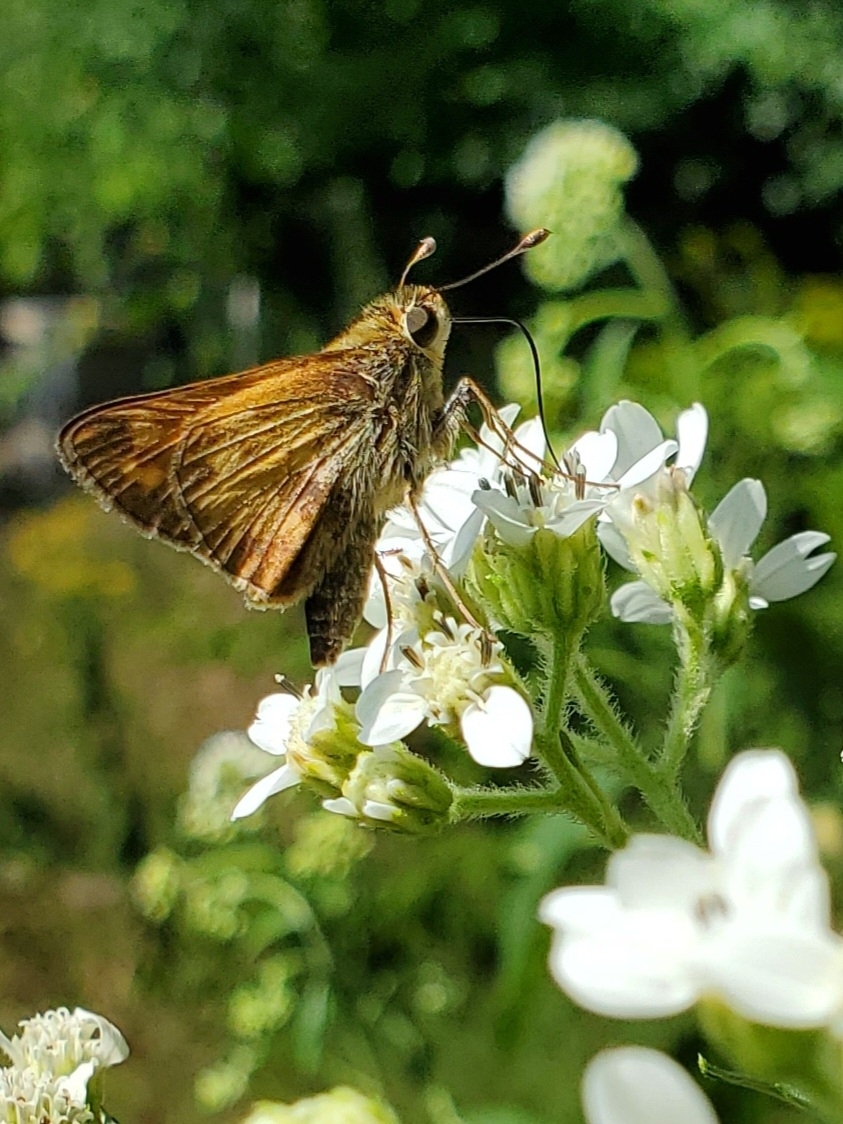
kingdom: Animalia
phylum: Arthropoda
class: Insecta
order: Lepidoptera
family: Hesperiidae
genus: Atalopedes
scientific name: Atalopedes
